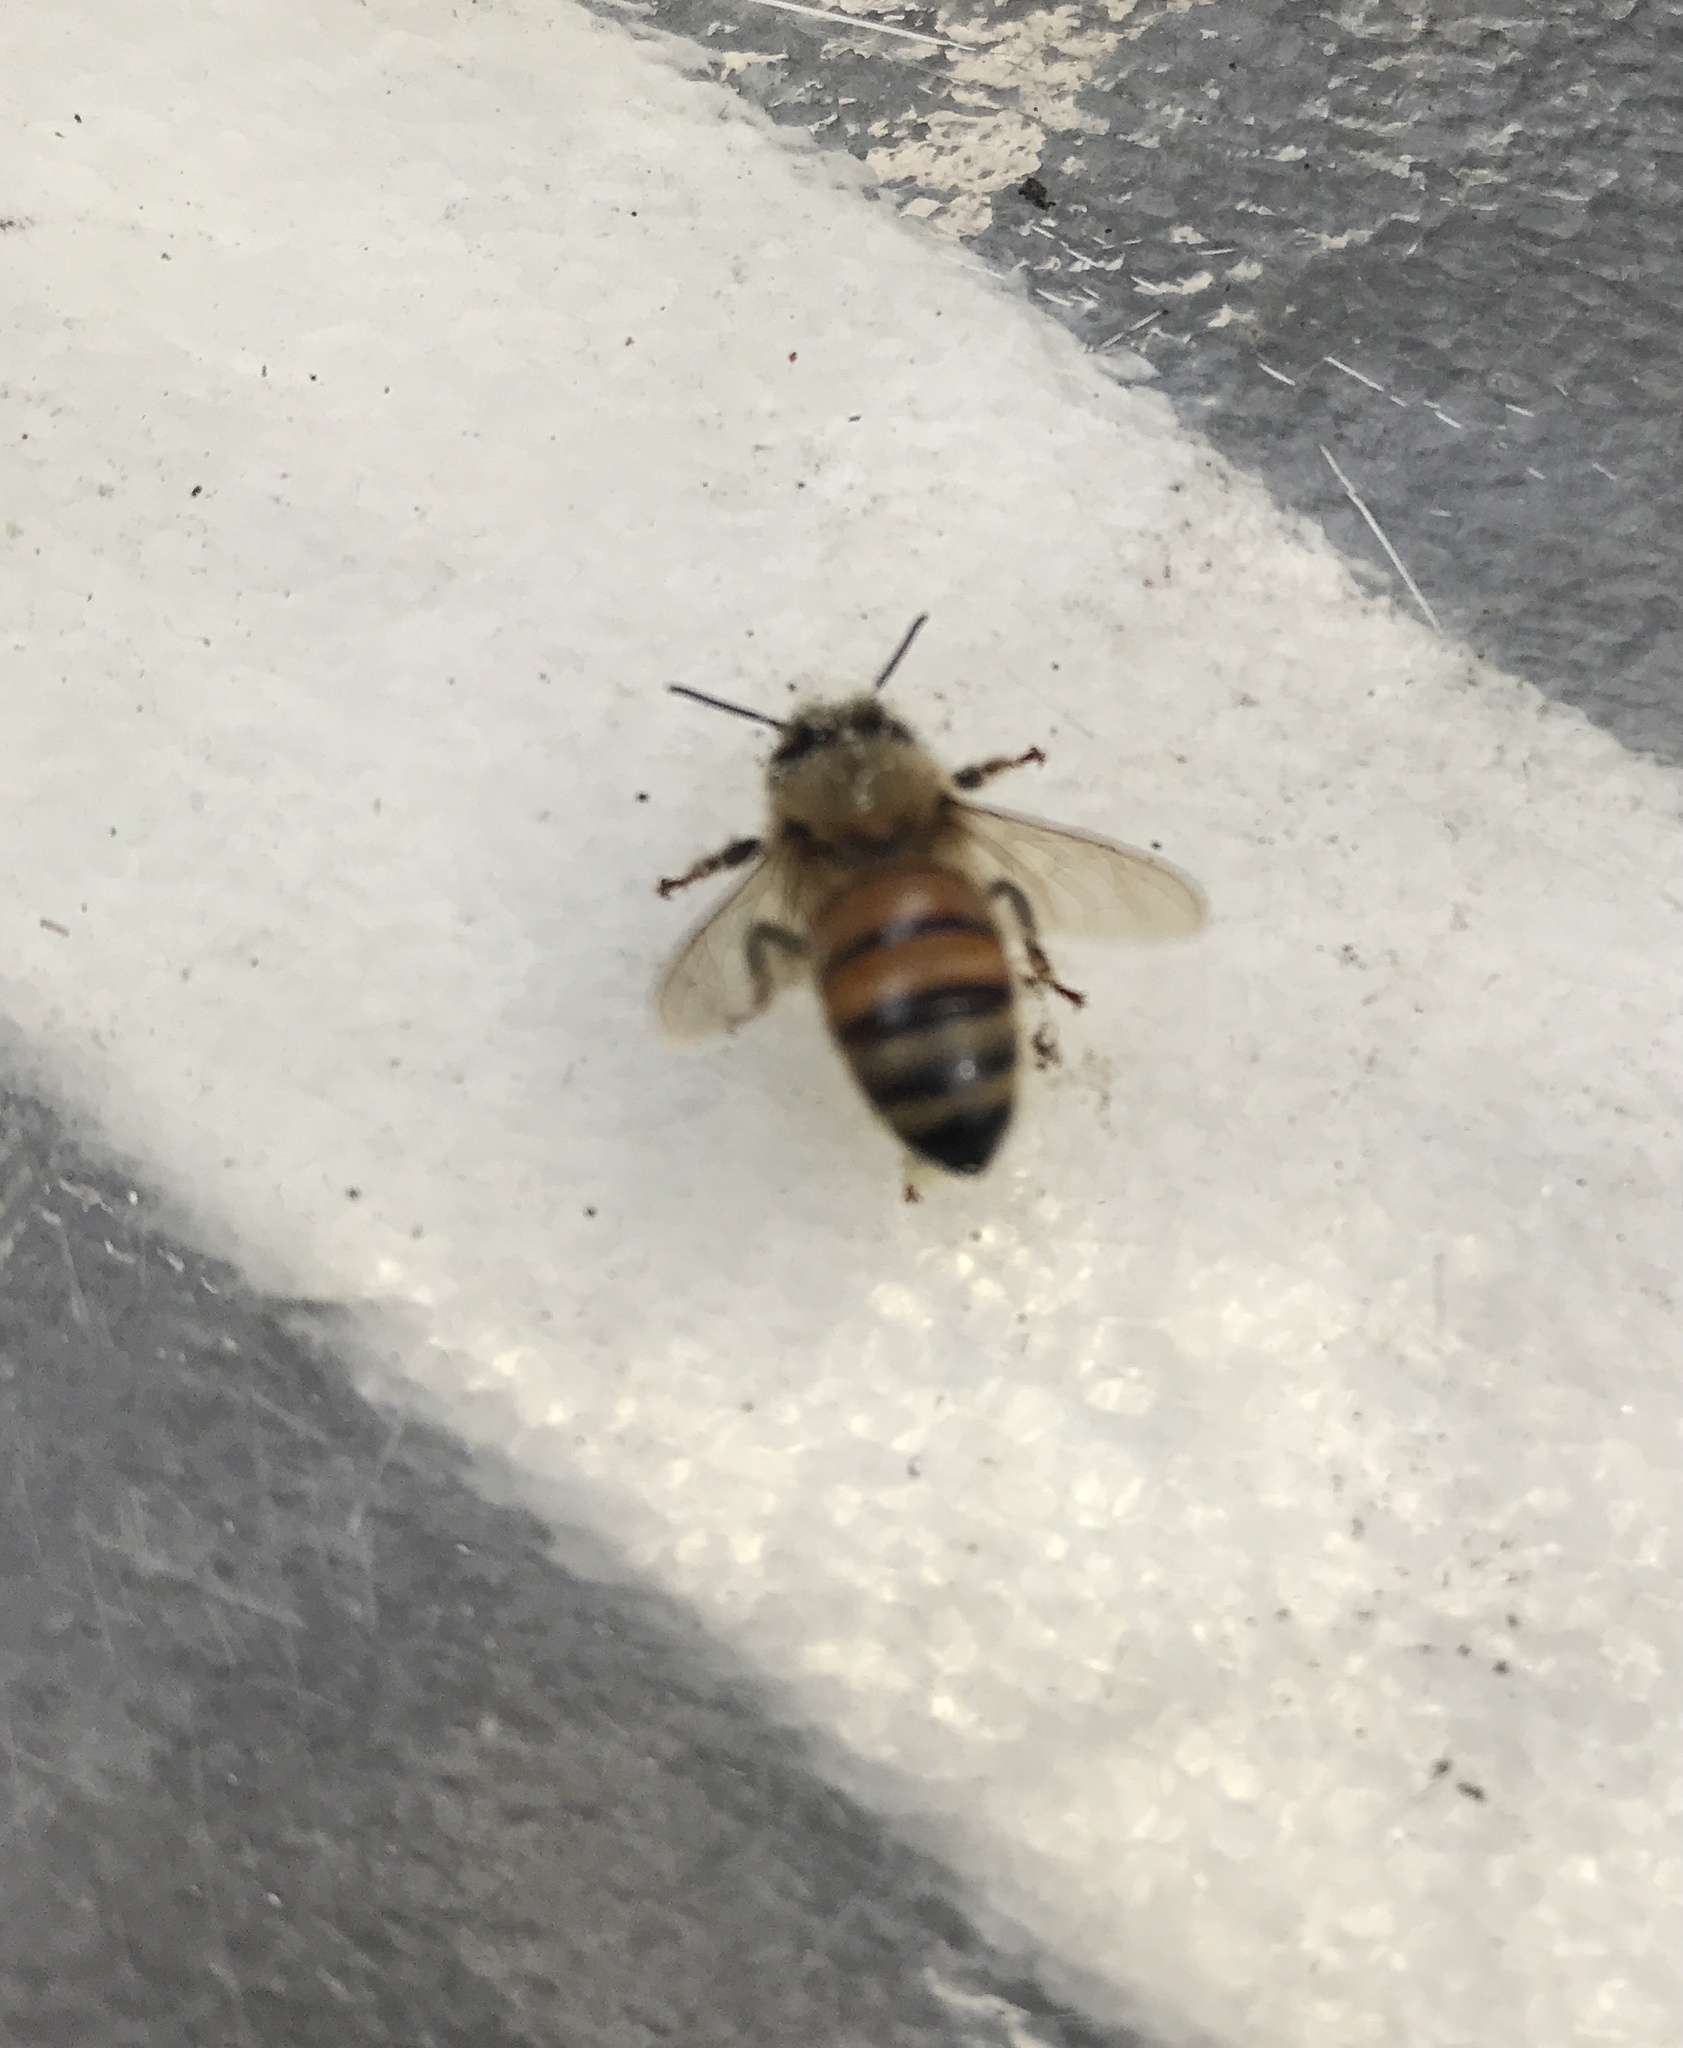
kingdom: Animalia
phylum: Arthropoda
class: Insecta
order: Hymenoptera
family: Apidae
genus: Apis
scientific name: Apis mellifera
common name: Honey bee
